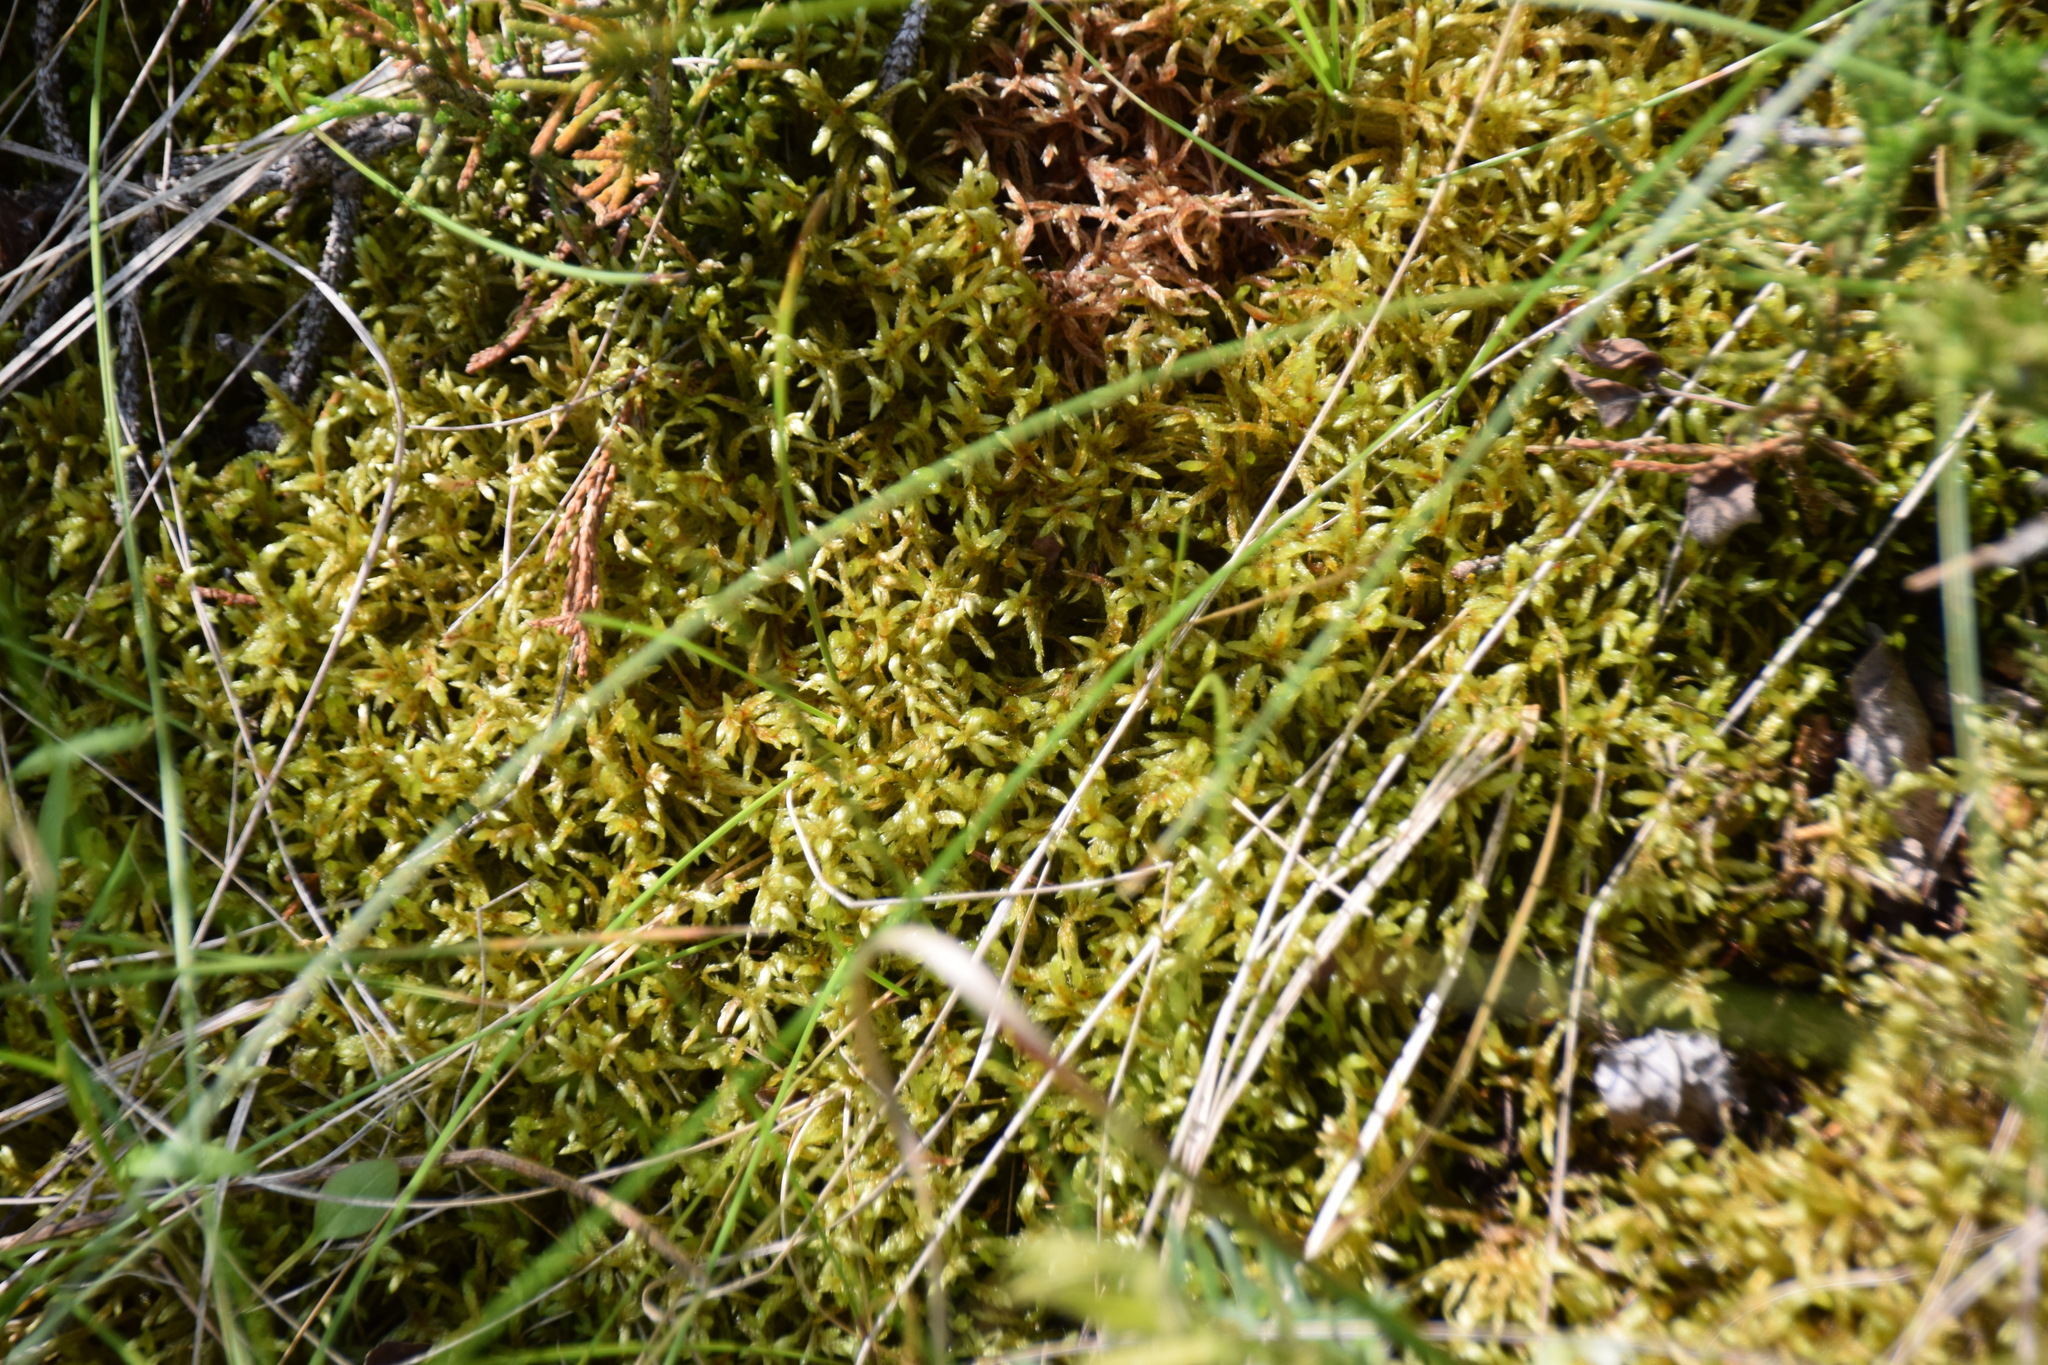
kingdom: Plantae
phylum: Bryophyta
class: Bryopsida
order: Hypnales
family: Hylocomiaceae
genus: Pleurozium
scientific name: Pleurozium schreberi
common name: Red-stemmed feather moss
